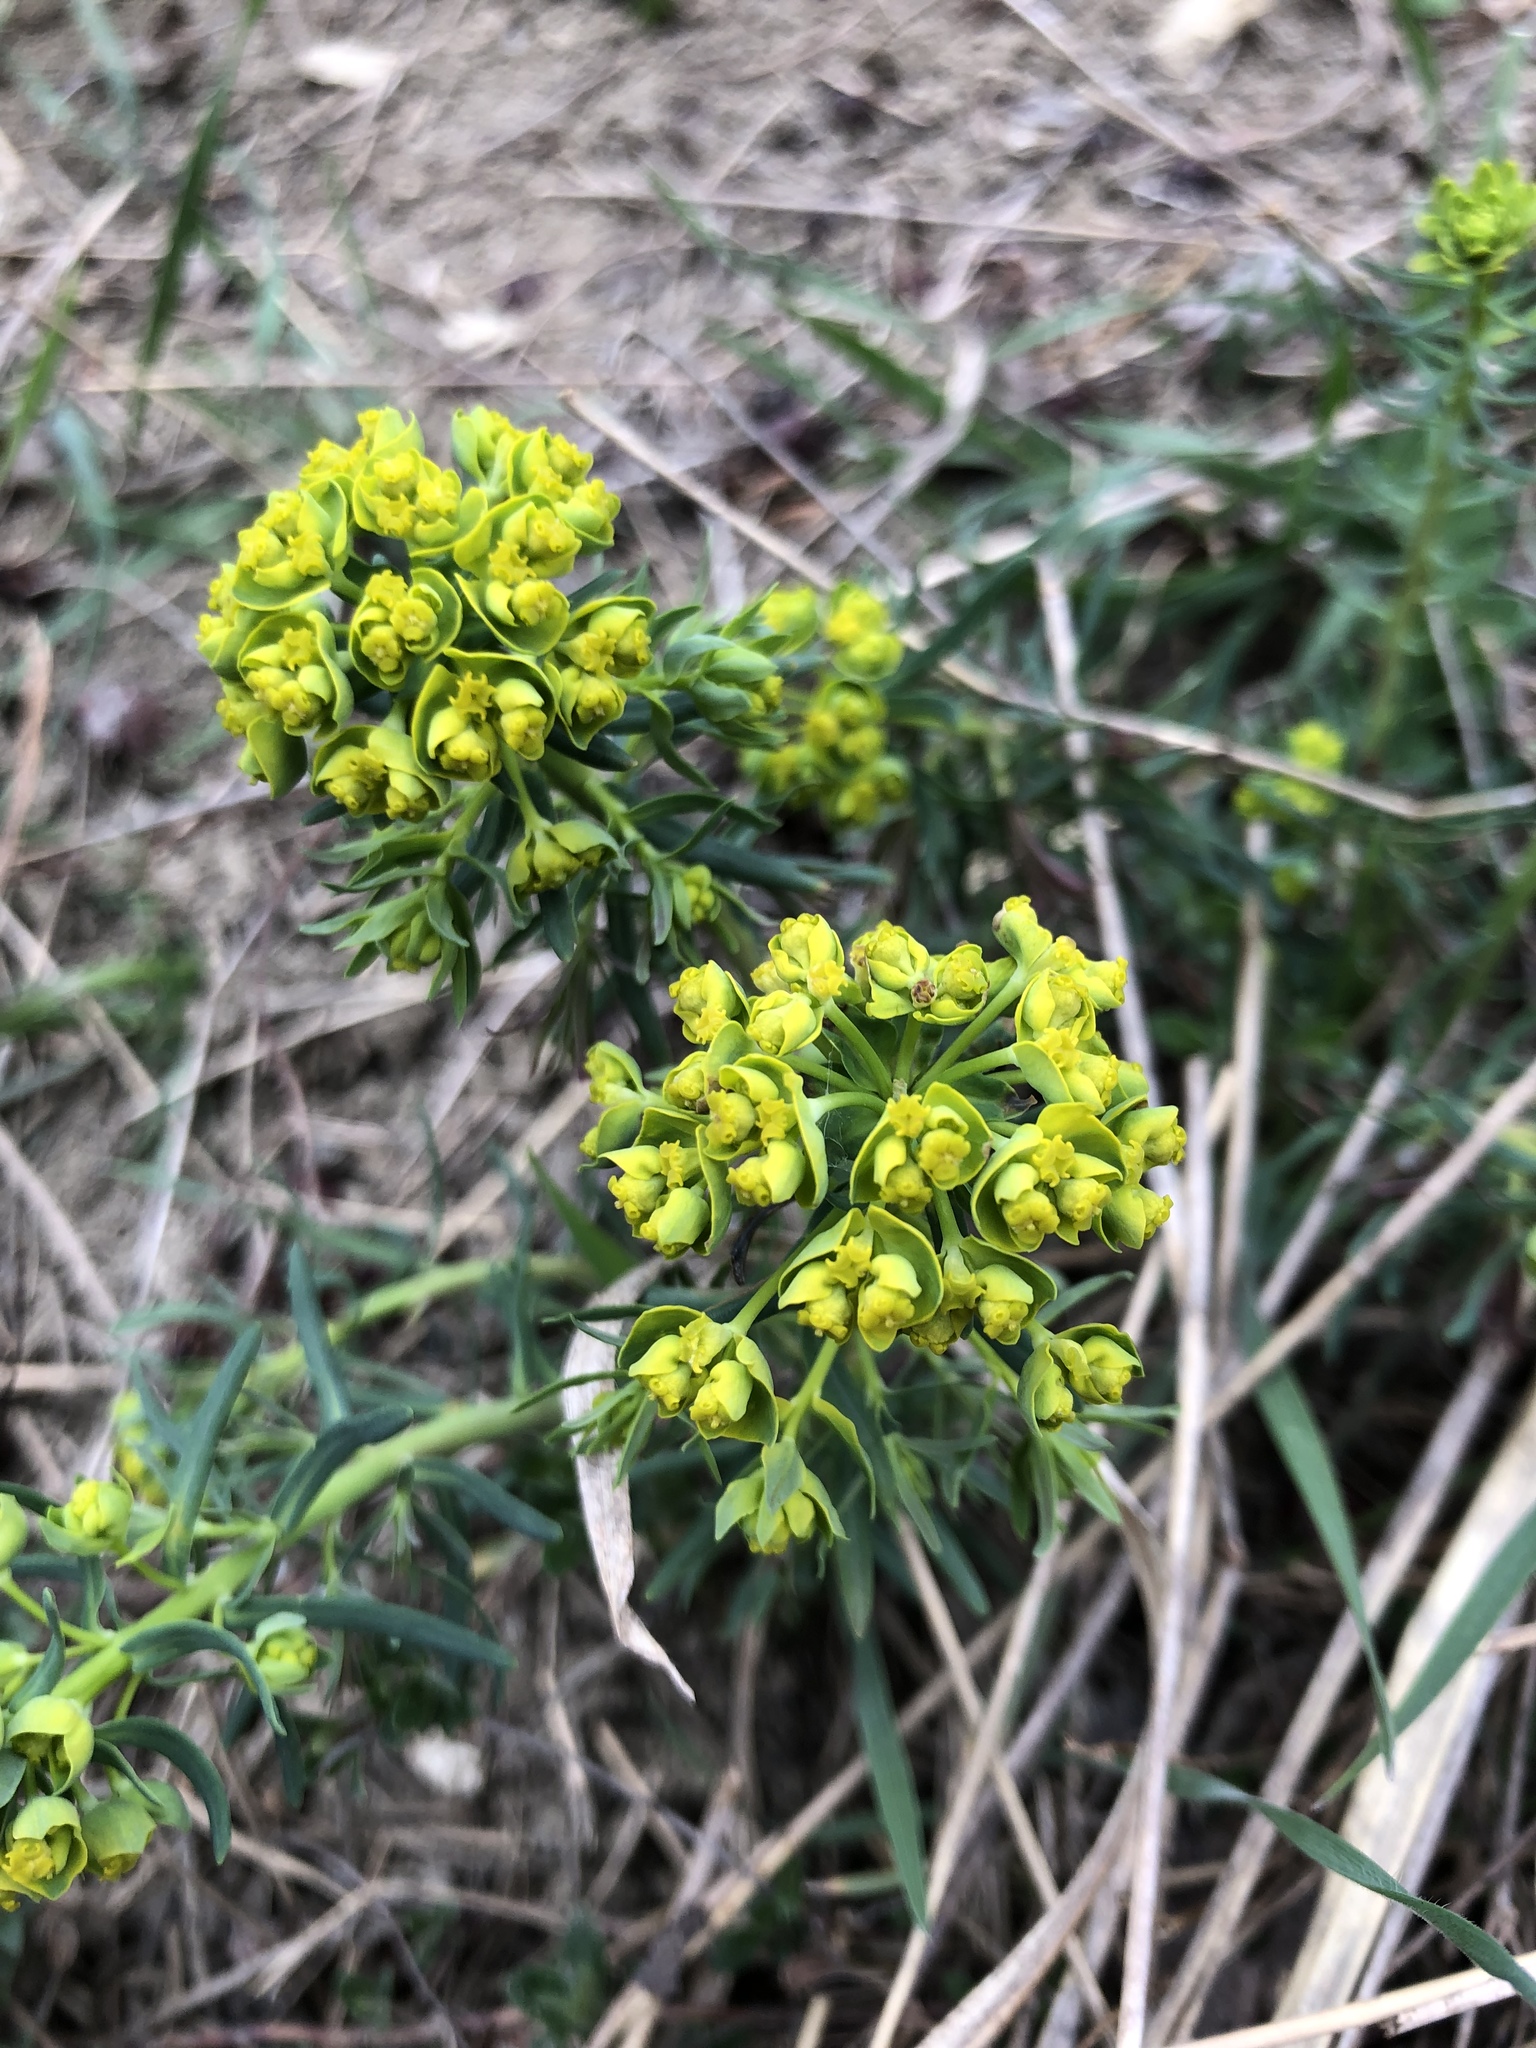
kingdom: Plantae
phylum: Tracheophyta
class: Magnoliopsida
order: Malpighiales
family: Euphorbiaceae
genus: Euphorbia
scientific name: Euphorbia cyparissias
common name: Cypress spurge
